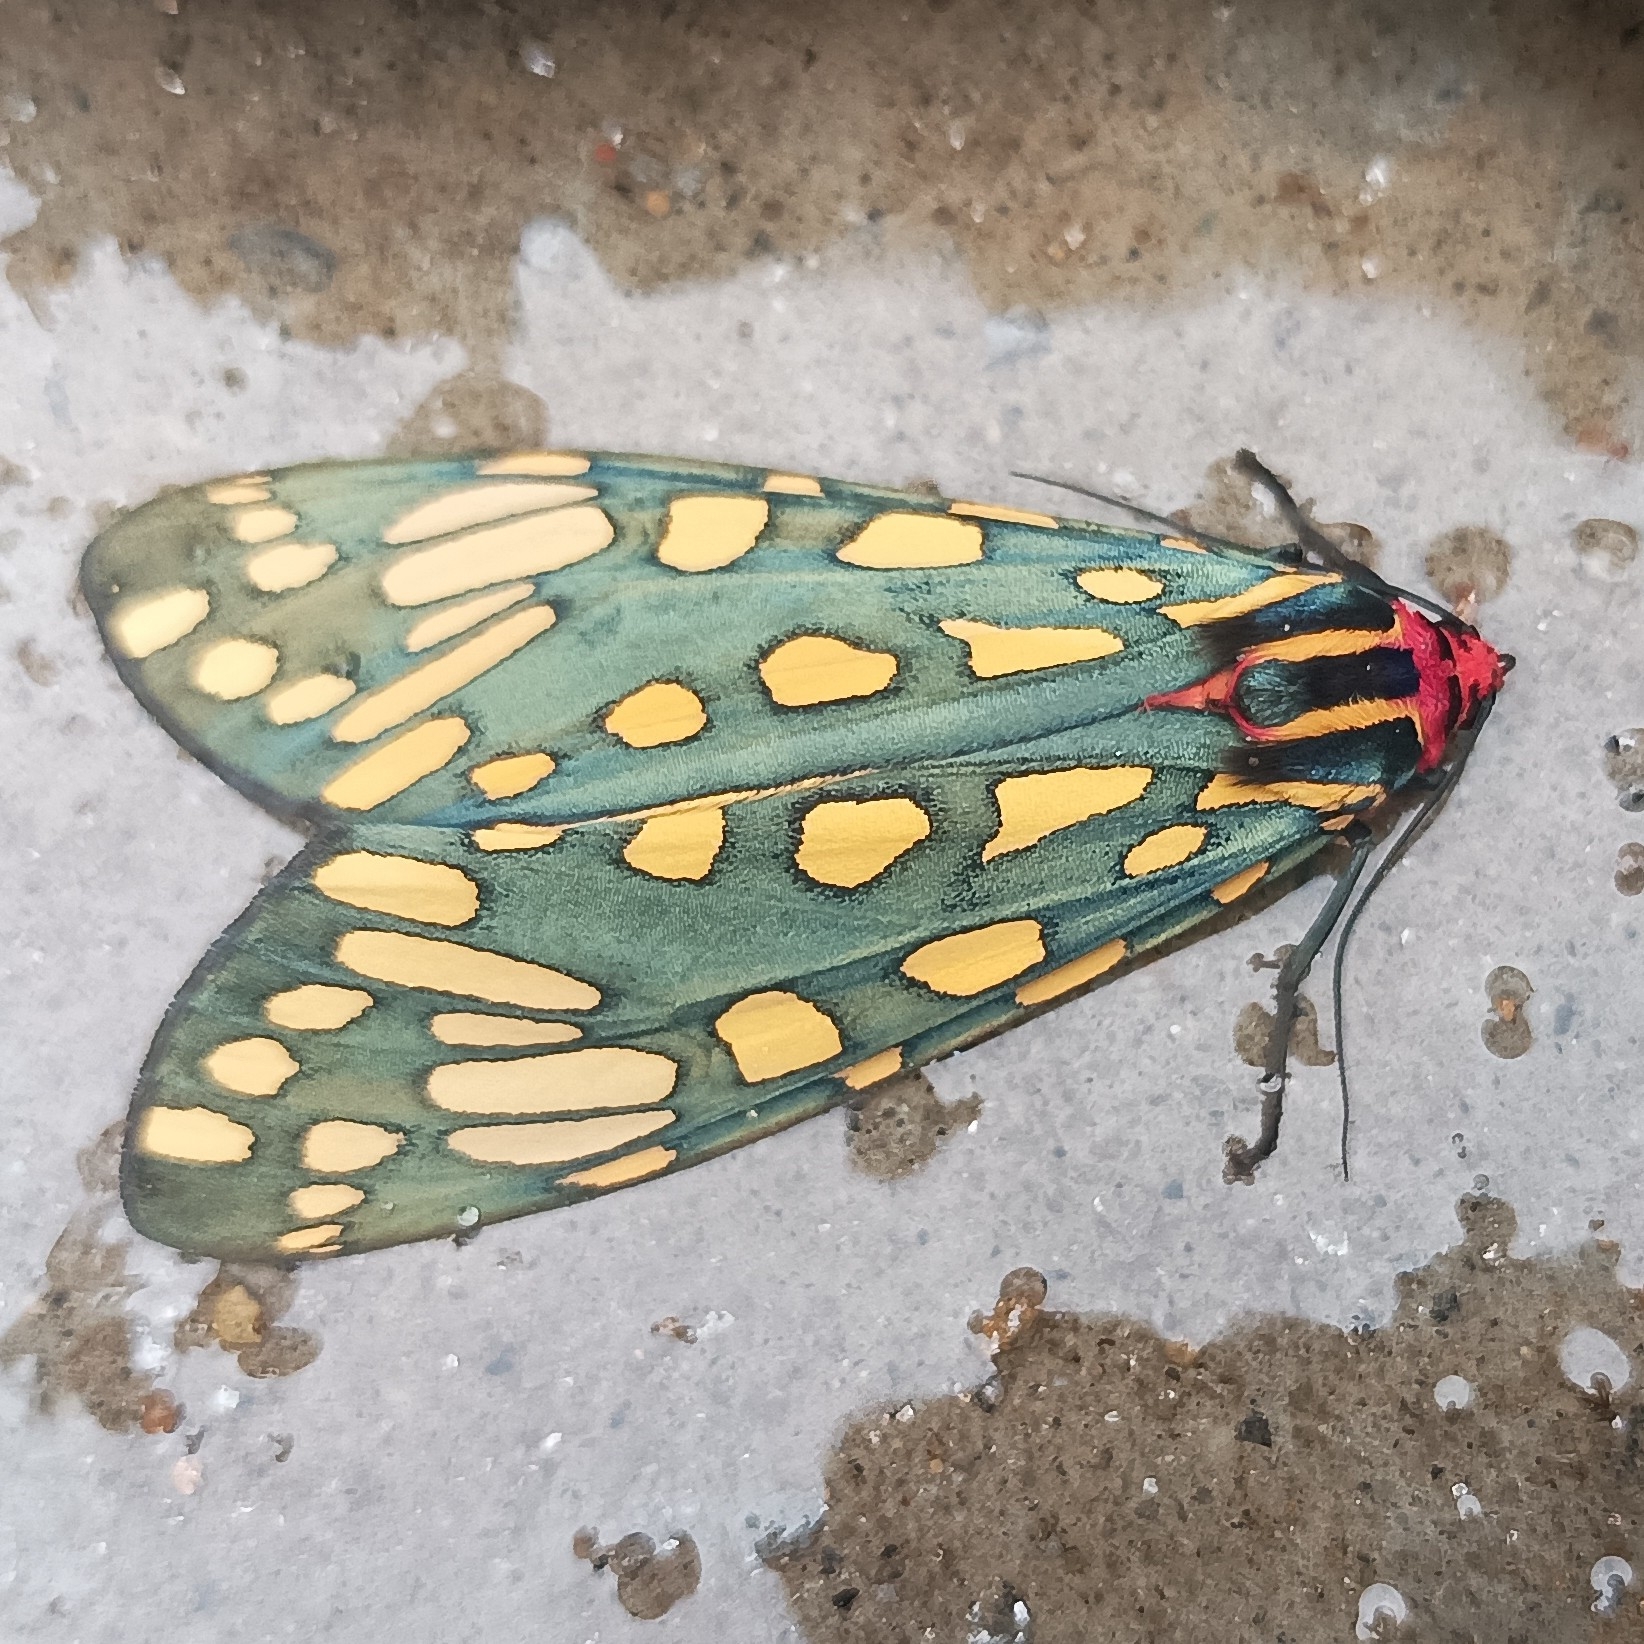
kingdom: Animalia
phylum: Arthropoda
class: Insecta
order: Lepidoptera
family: Erebidae
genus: Callindra
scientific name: Callindra principalis
